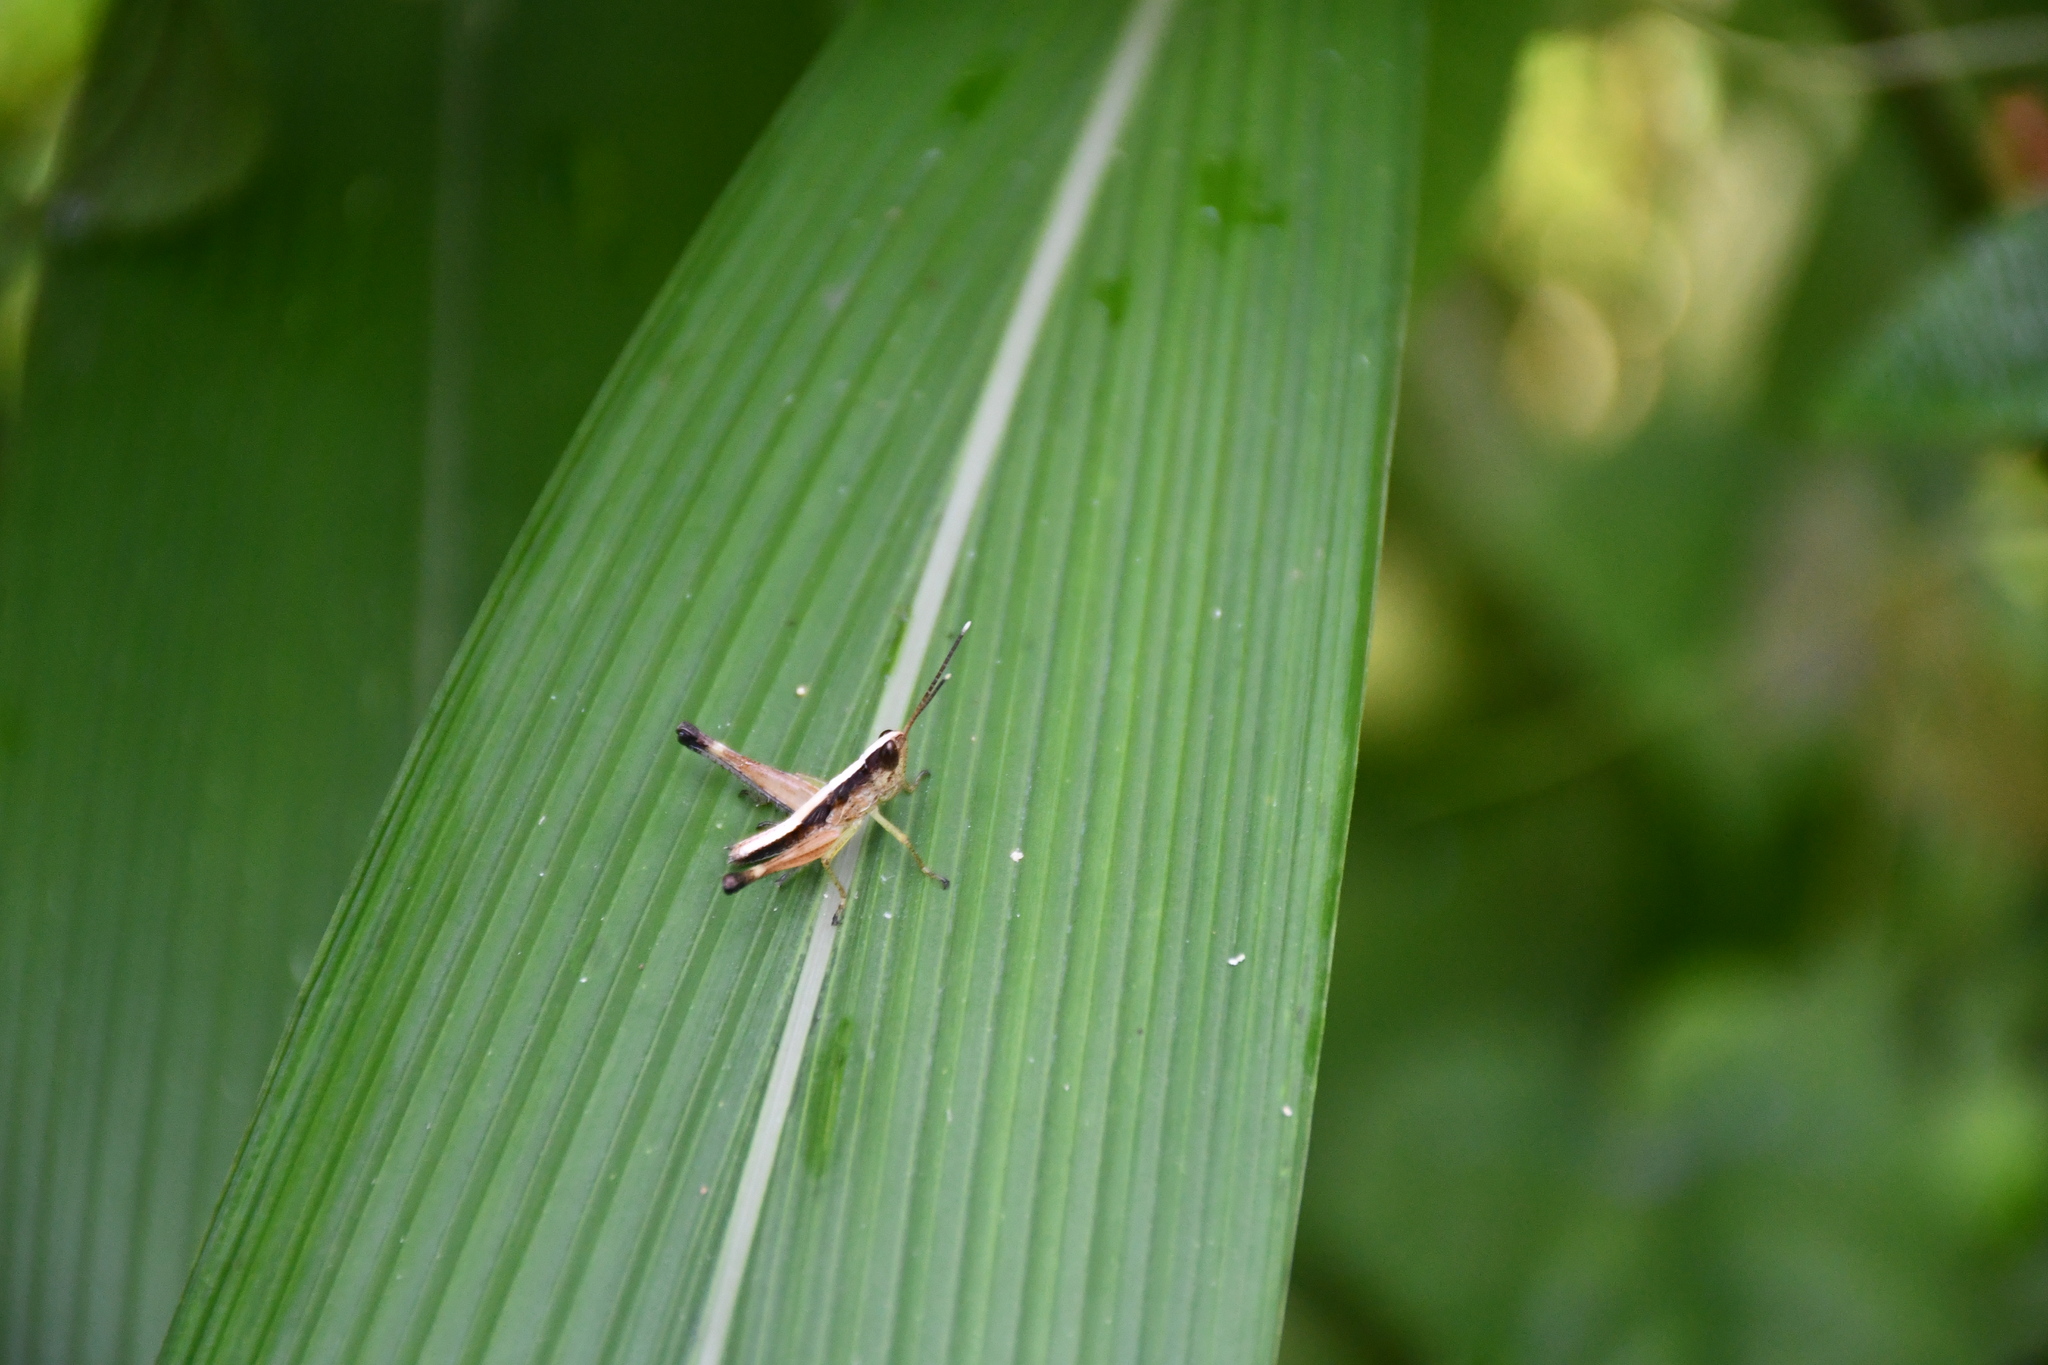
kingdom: Animalia
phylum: Arthropoda
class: Insecta
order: Orthoptera
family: Acrididae
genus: Compsacris
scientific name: Compsacris pulcher
